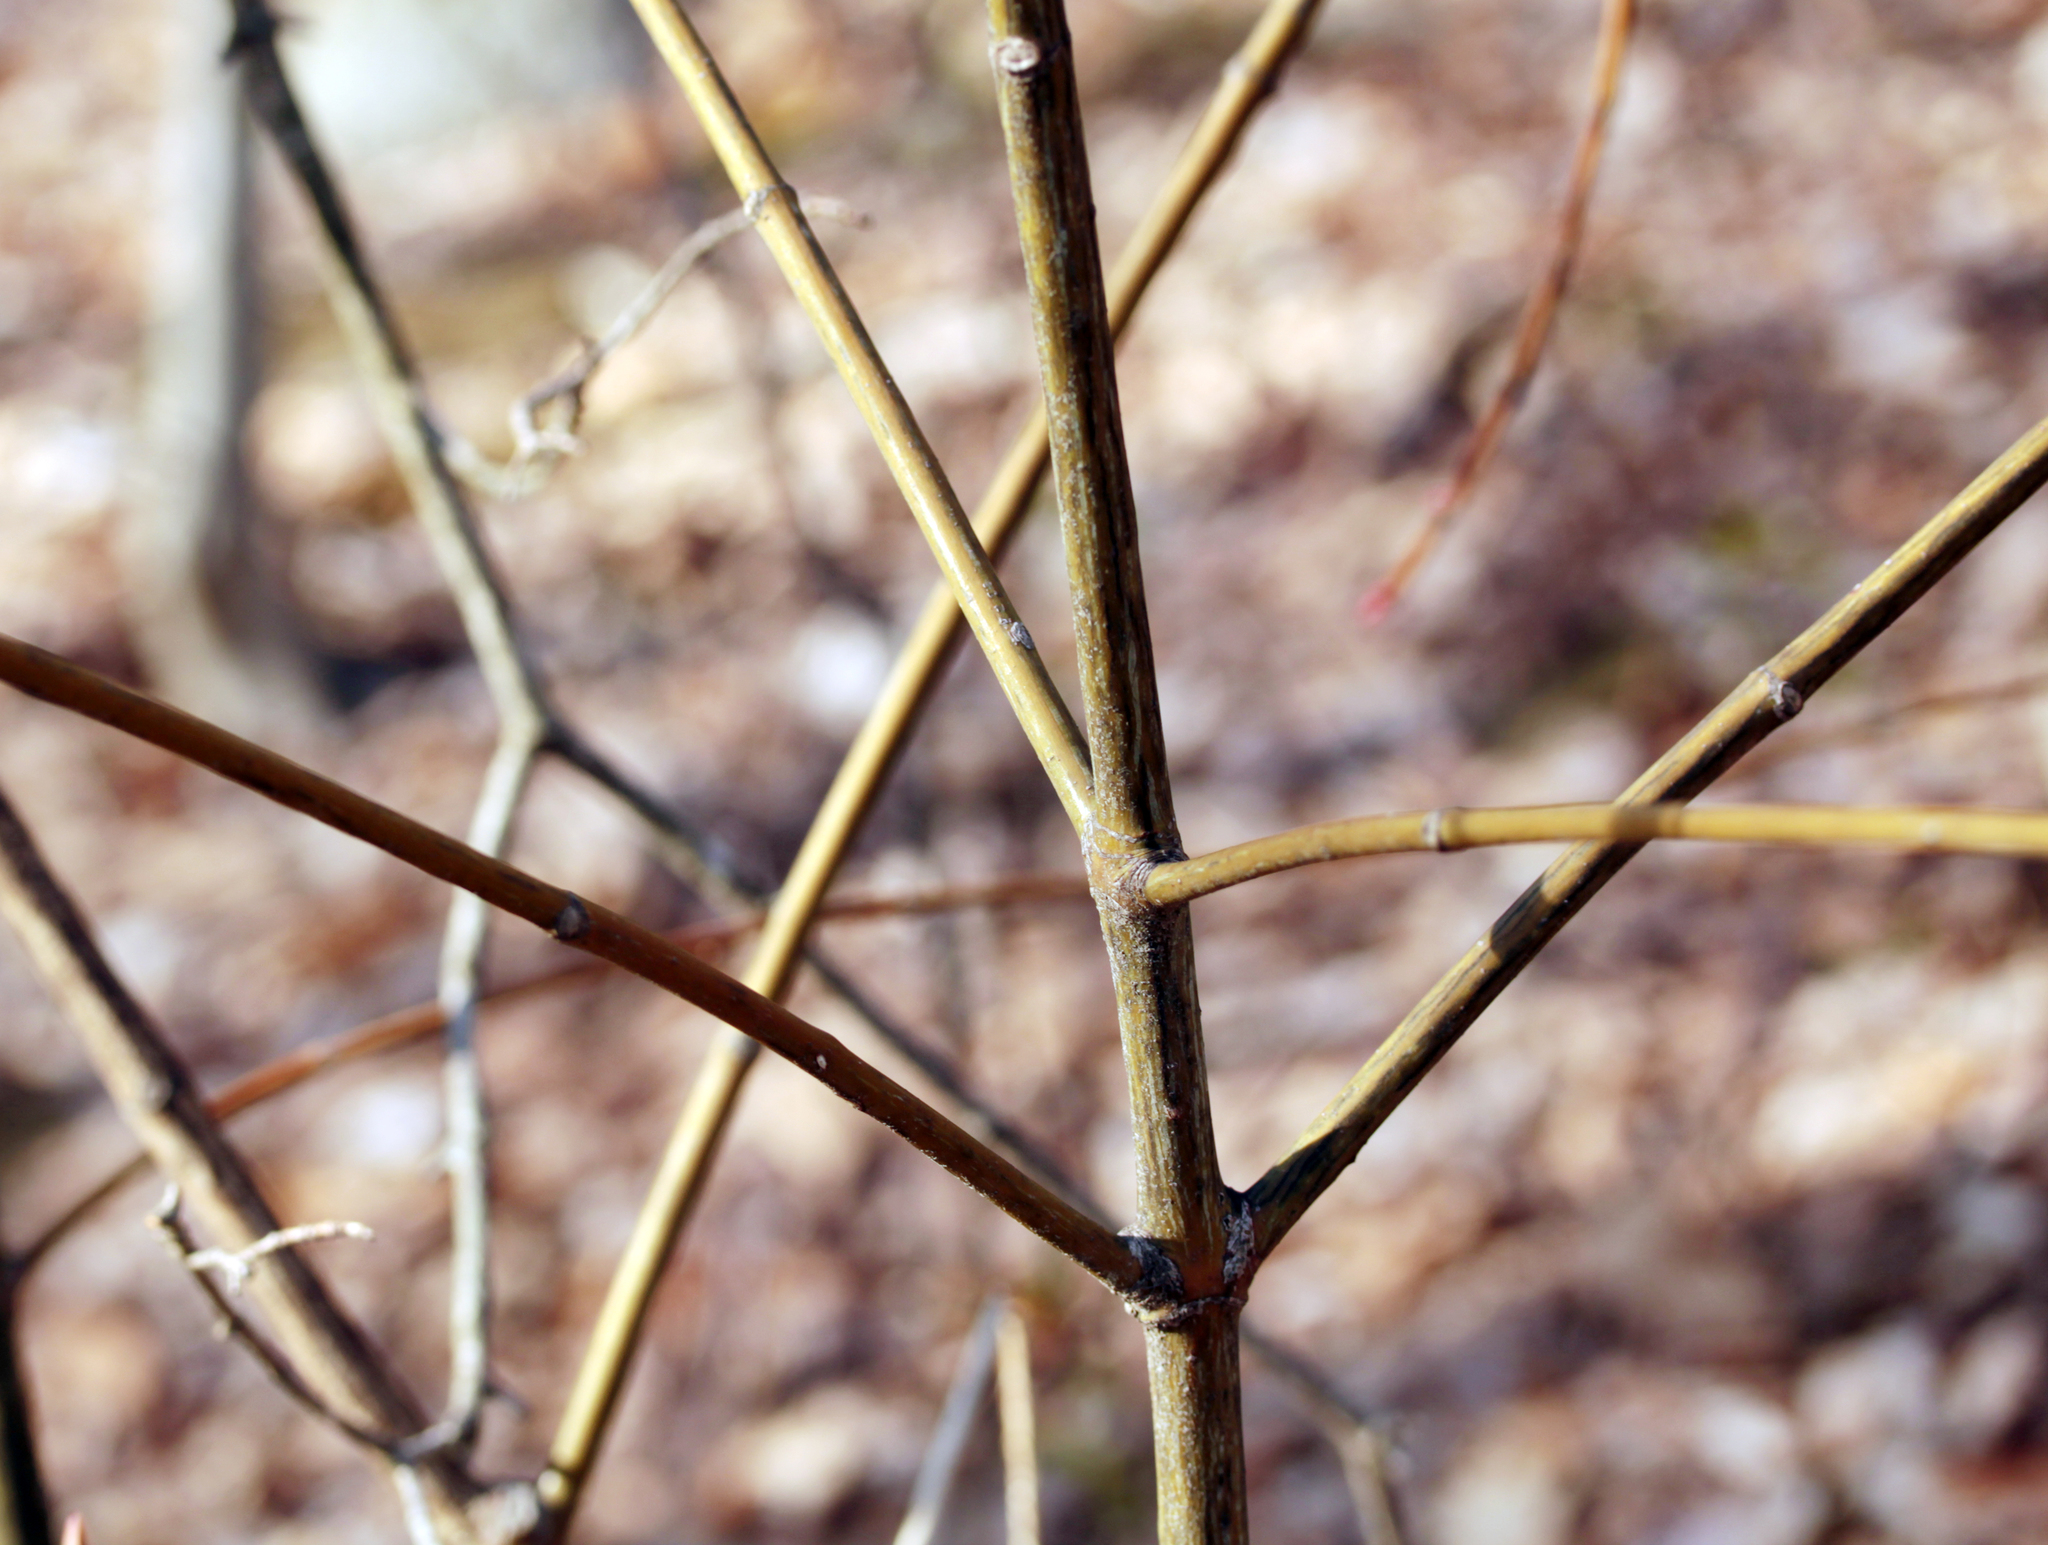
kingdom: Plantae
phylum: Tracheophyta
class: Magnoliopsida
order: Sapindales
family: Sapindaceae
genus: Acer
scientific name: Acer pensylvanicum
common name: Moosewood
